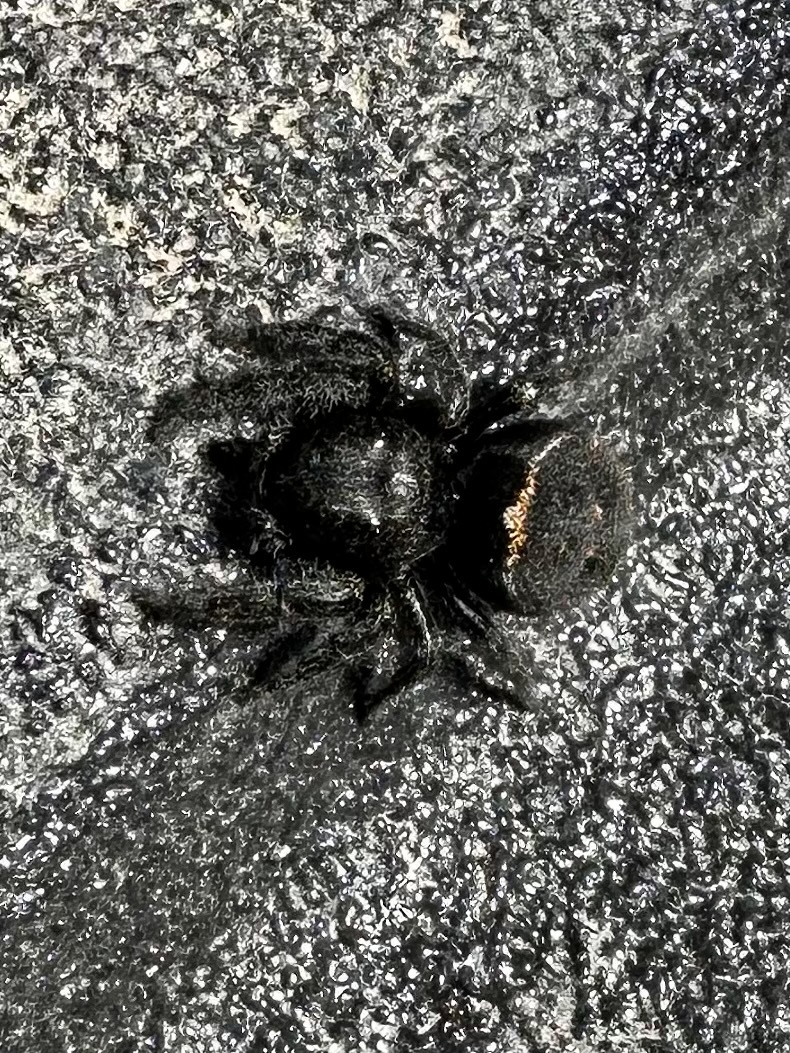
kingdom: Animalia
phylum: Arthropoda
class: Arachnida
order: Araneae
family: Salticidae
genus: Phidippus
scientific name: Phidippus johnsoni
